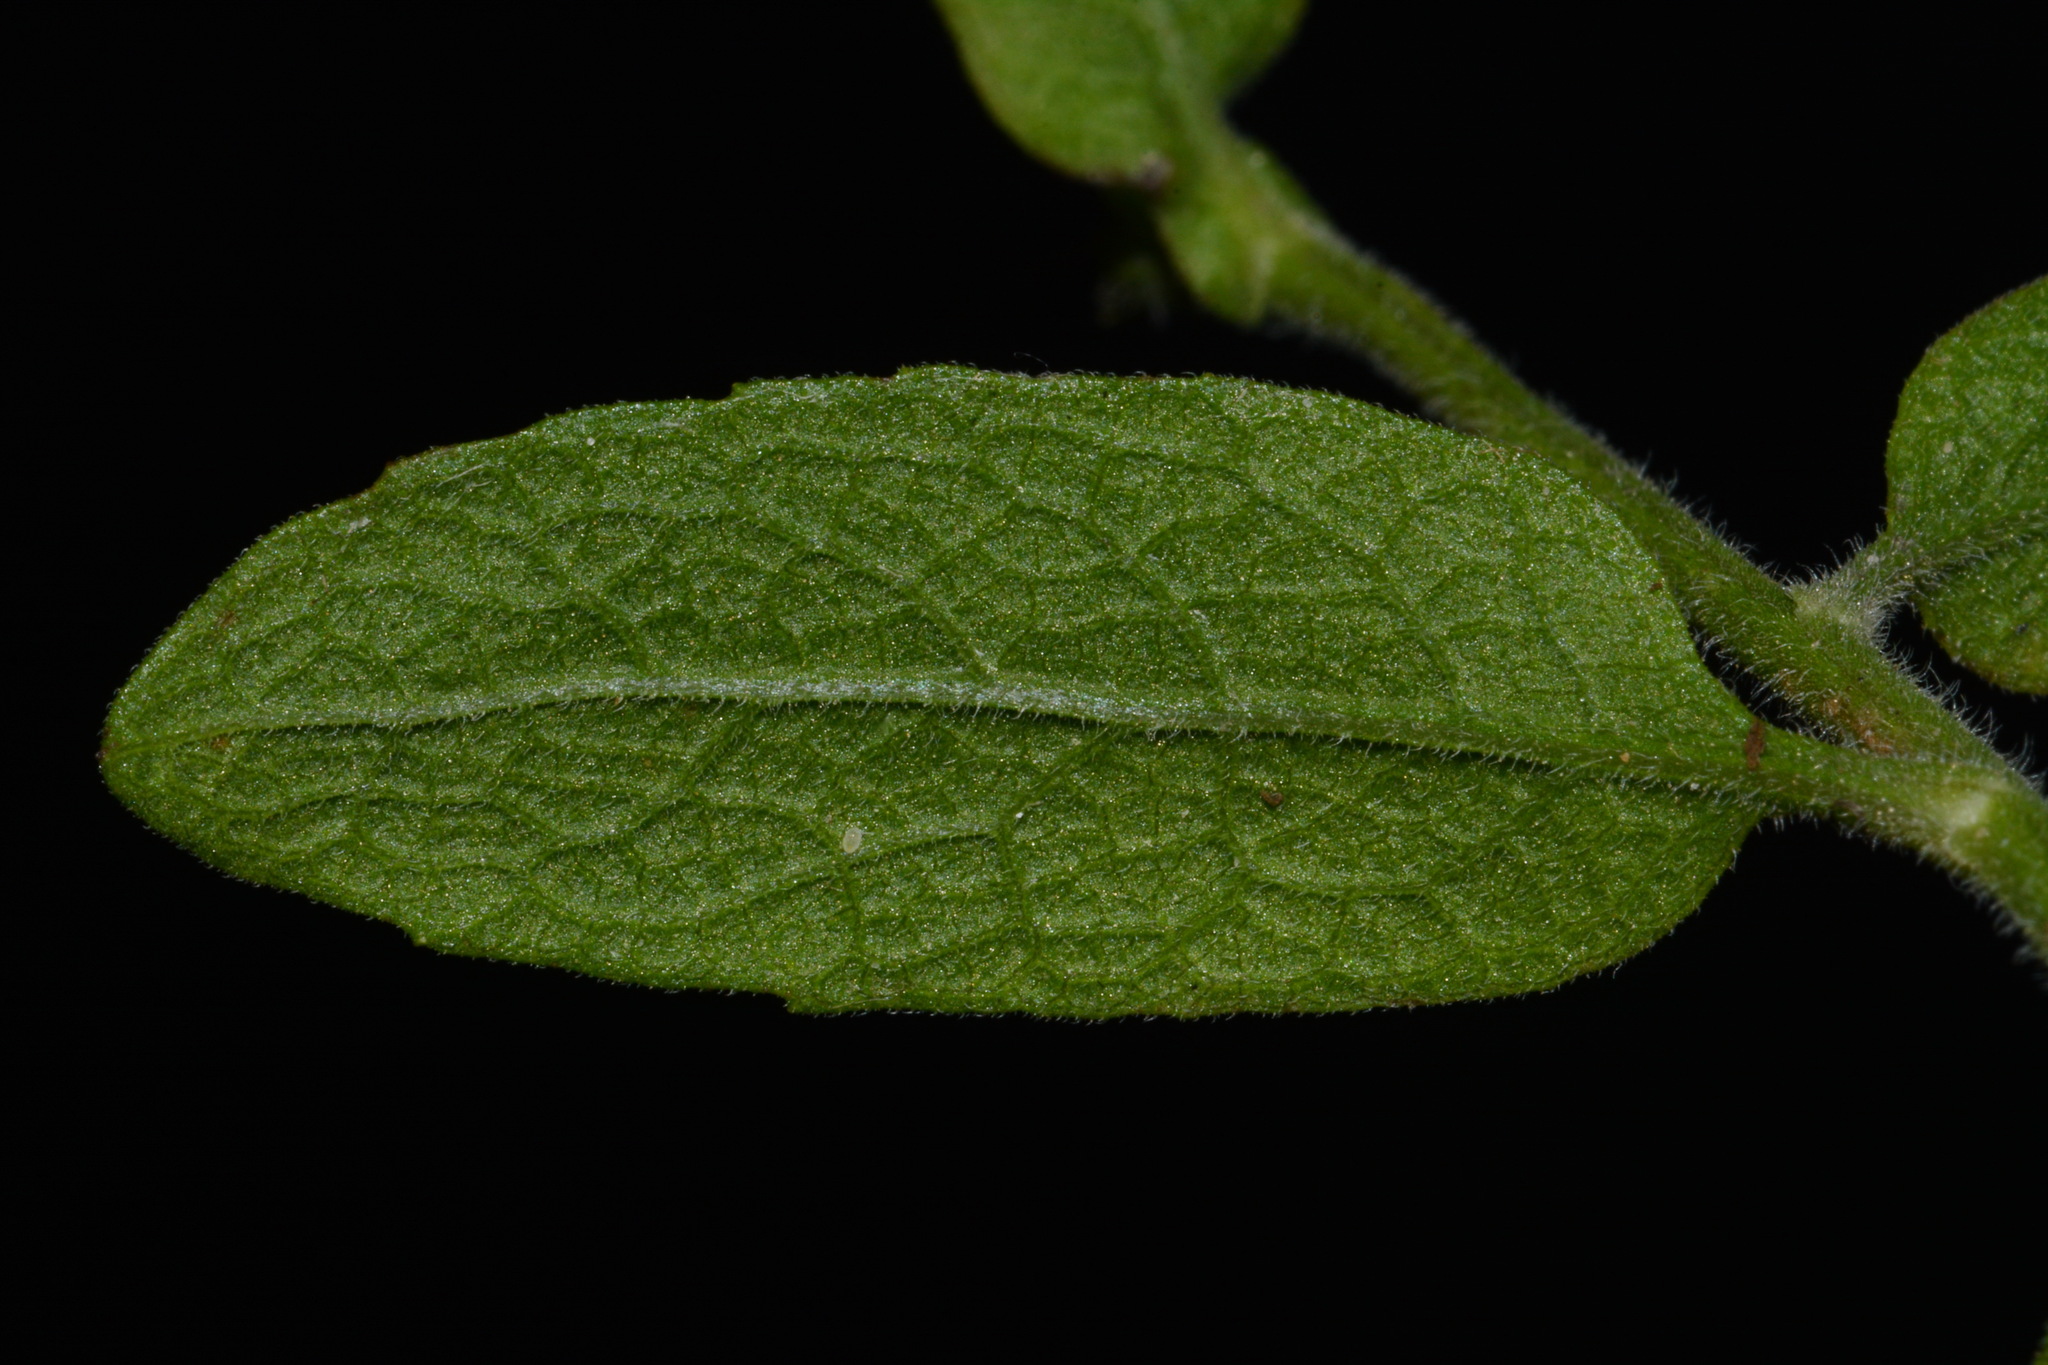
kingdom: Plantae
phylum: Tracheophyta
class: Magnoliopsida
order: Asterales
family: Asteraceae
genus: Heterotheca
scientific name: Heterotheca subaxillaris
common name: Camphorweed
